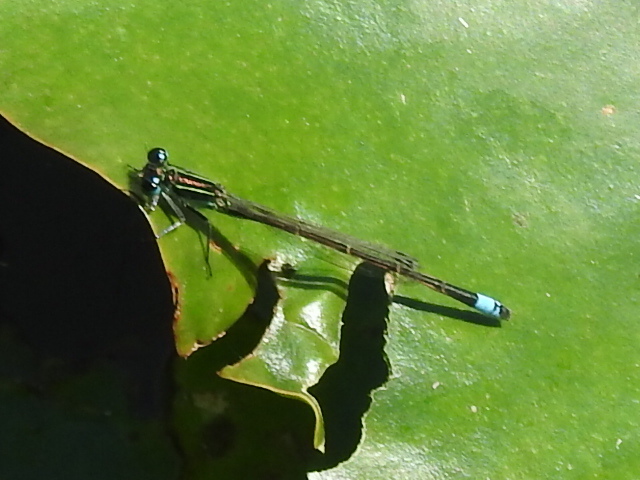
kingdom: Animalia
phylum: Arthropoda
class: Insecta
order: Odonata
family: Coenagrionidae
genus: Ischnura
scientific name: Ischnura ramburii
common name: Rambur's forktail
